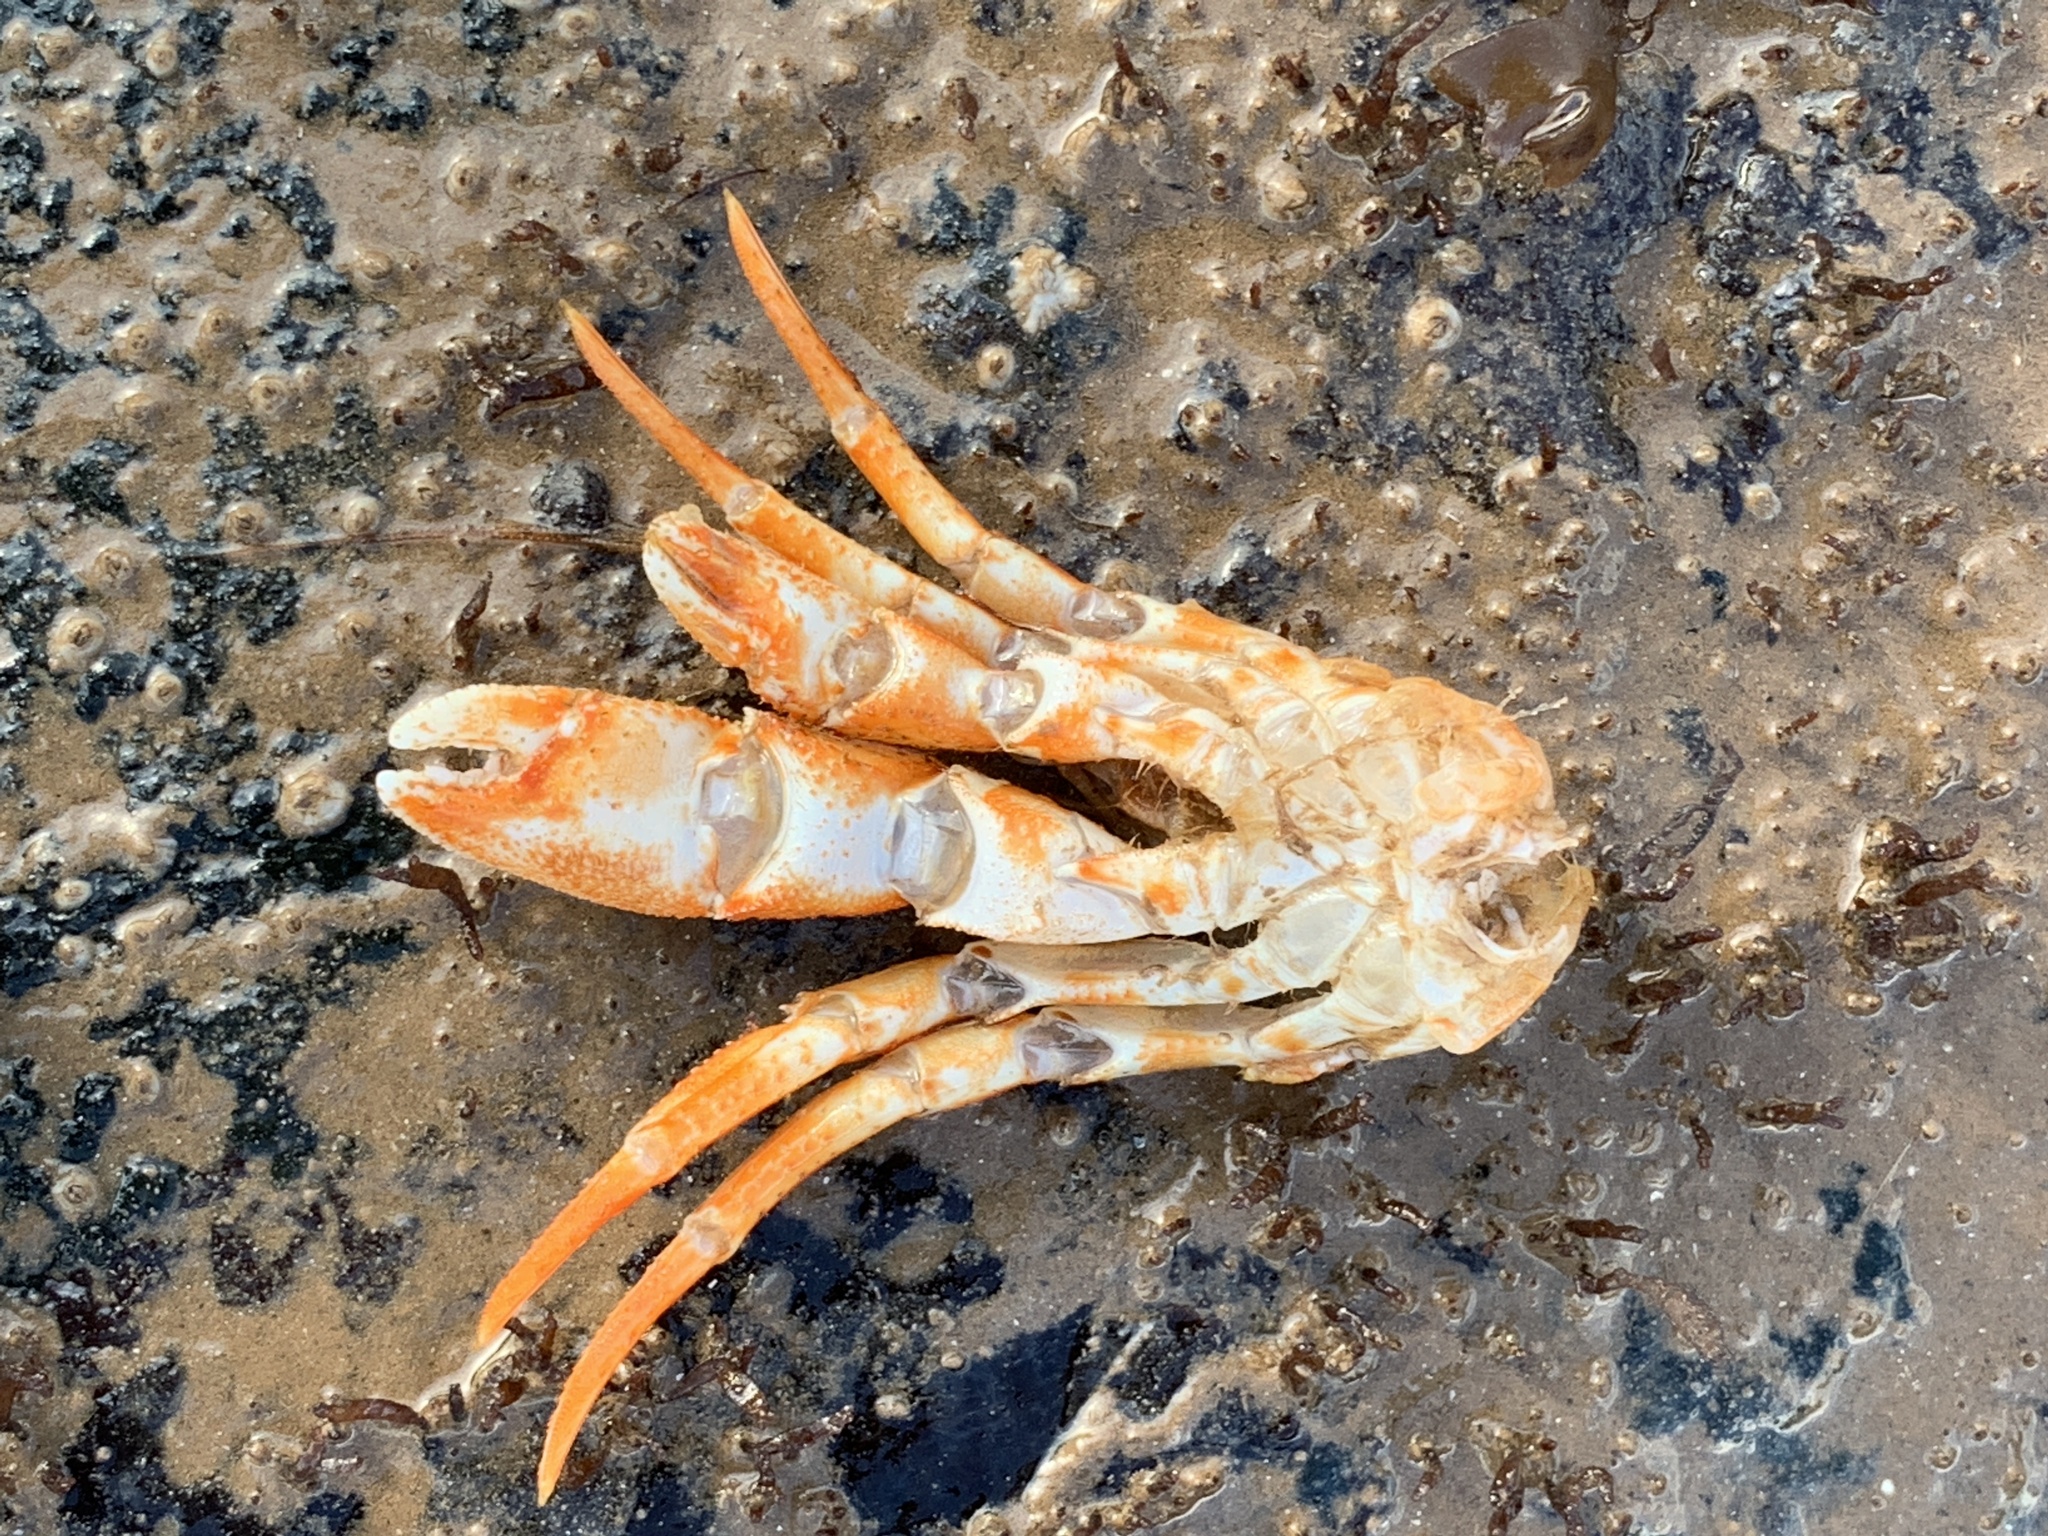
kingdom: Animalia
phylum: Arthropoda
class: Malacostraca
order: Decapoda
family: Paguridae
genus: Pagurus
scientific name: Pagurus acadianus
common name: Acadian hermit crab
